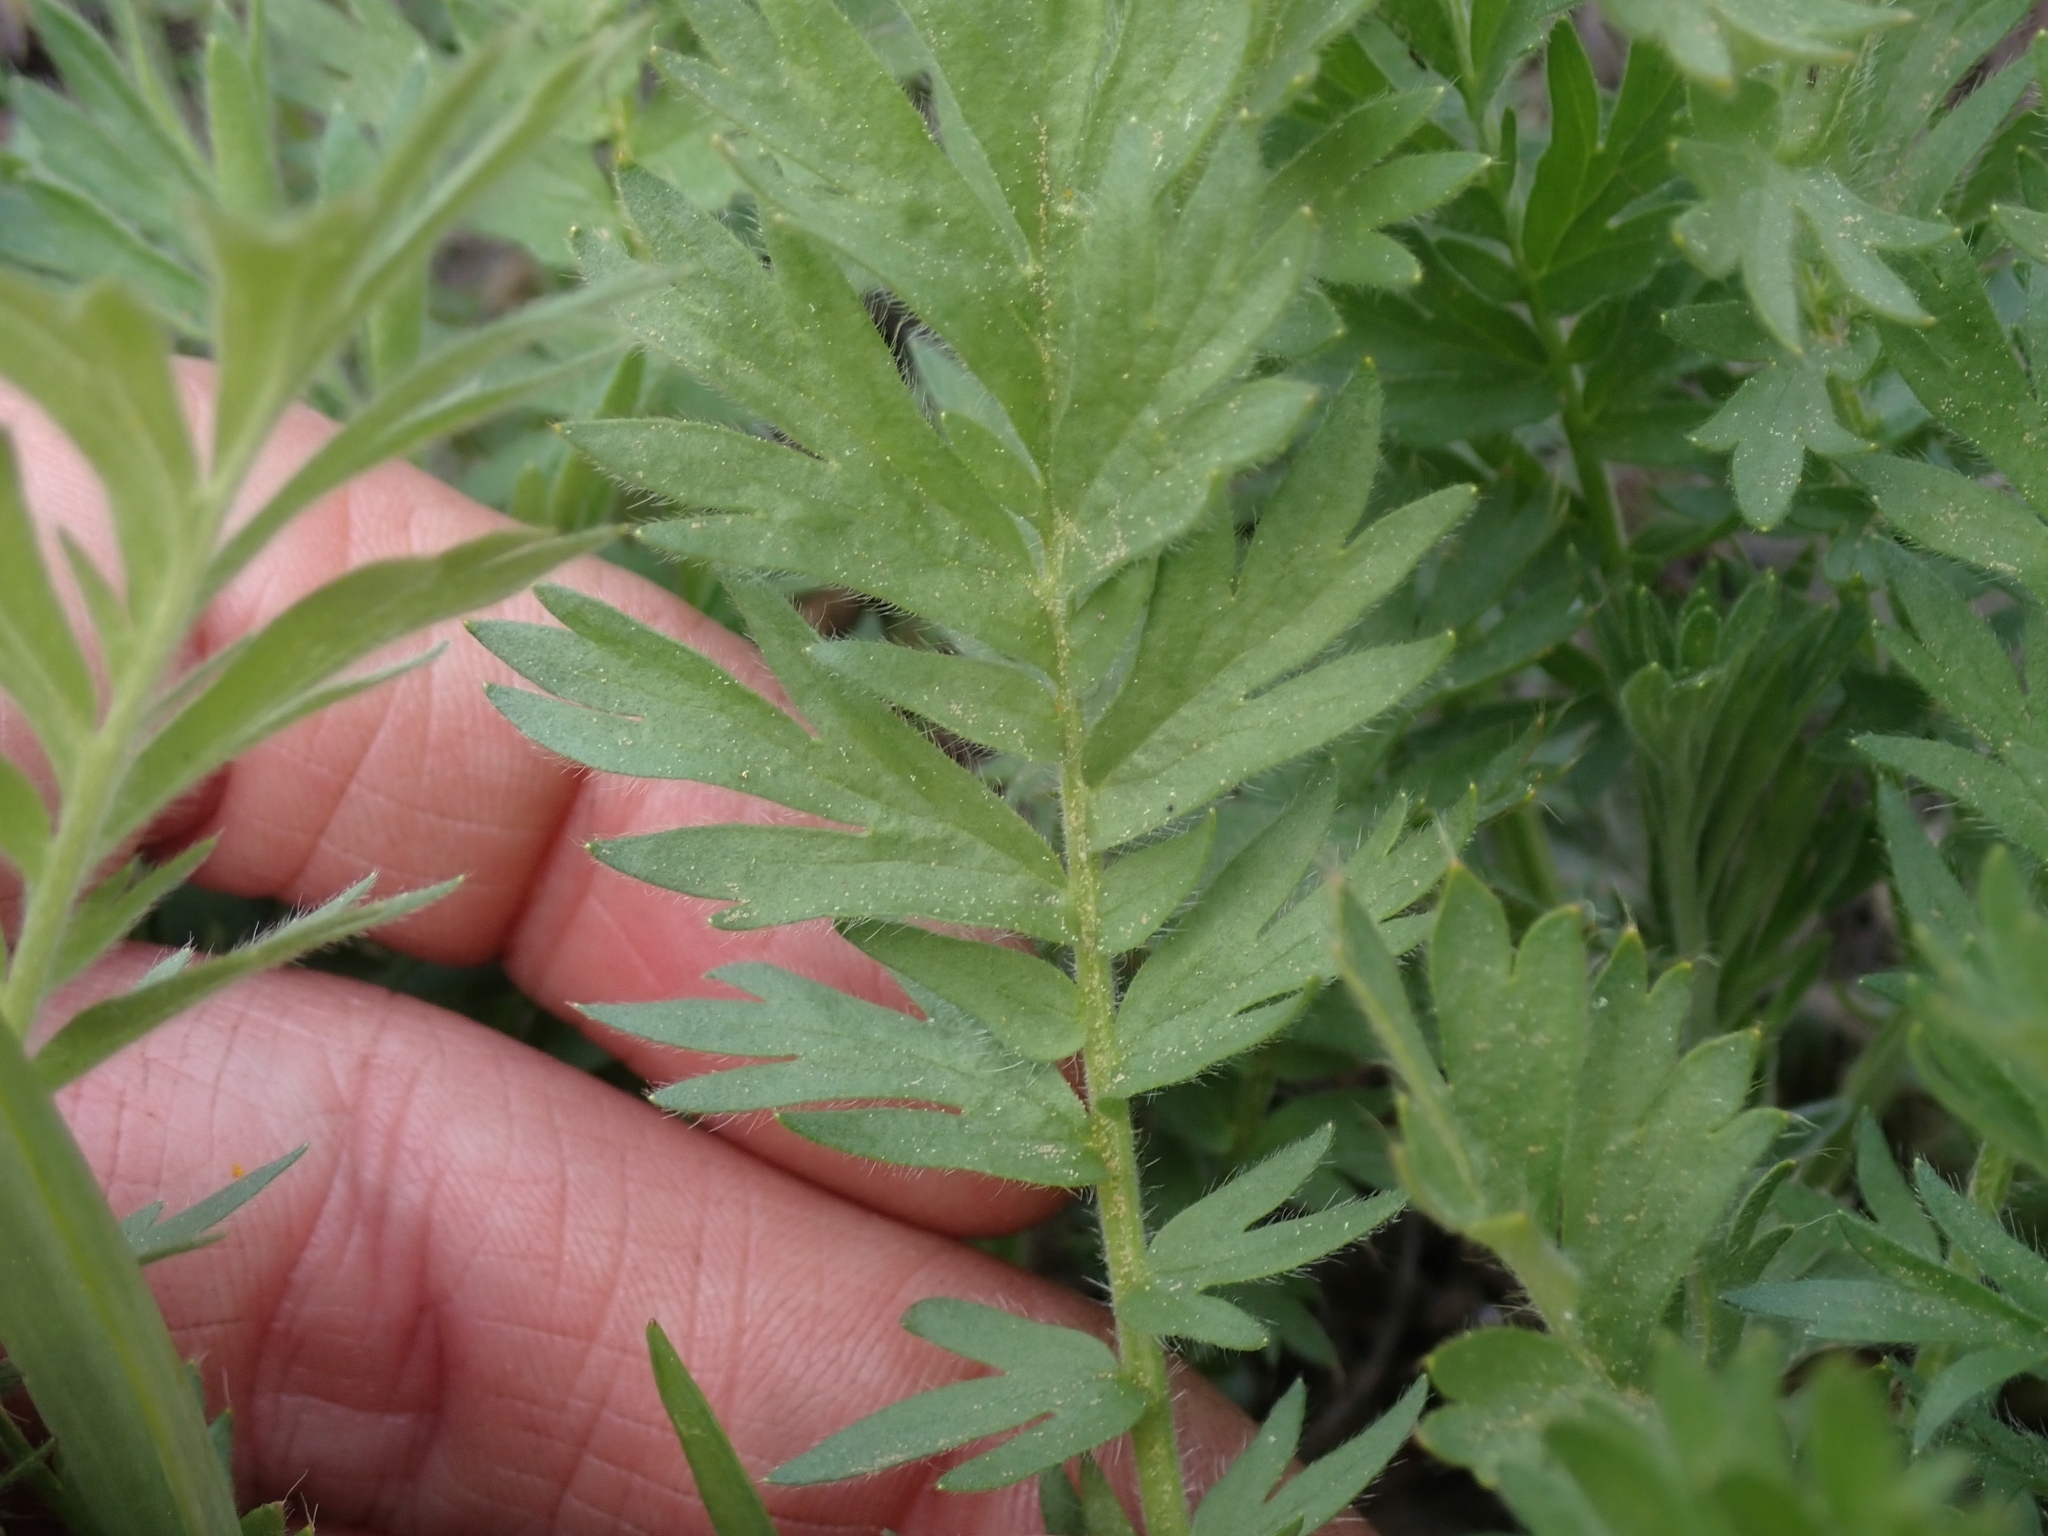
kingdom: Plantae
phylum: Tracheophyta
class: Magnoliopsida
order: Rosales
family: Rosaceae
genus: Geum
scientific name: Geum triflorum
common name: Old man's whiskers
